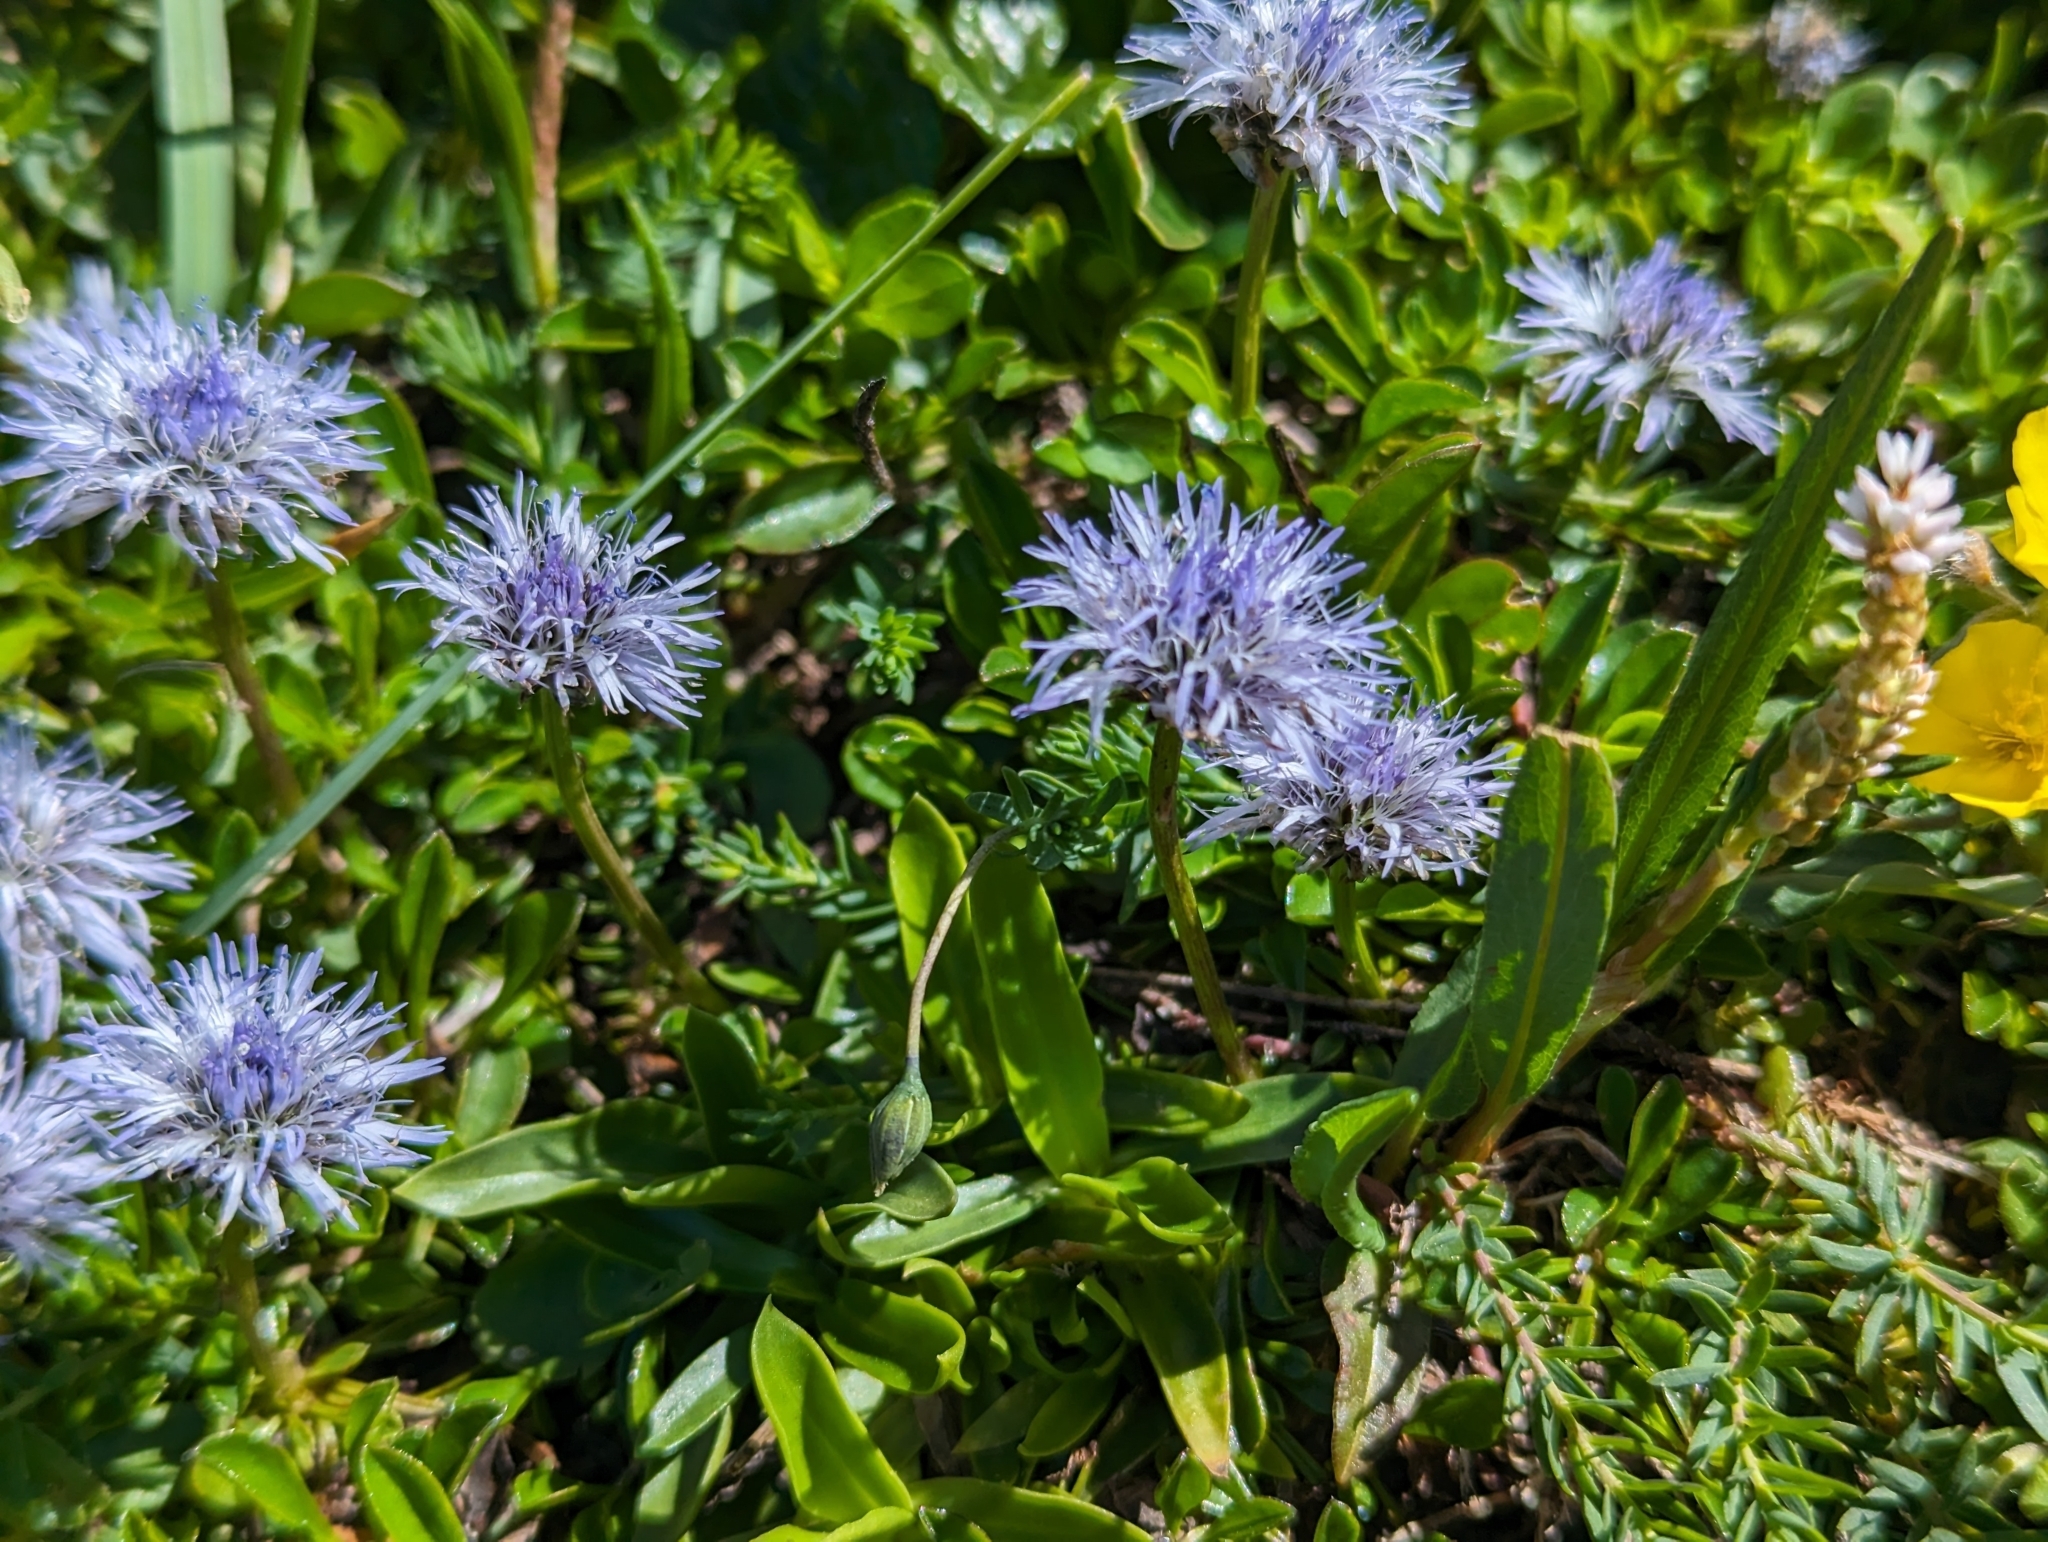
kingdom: Plantae
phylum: Tracheophyta
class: Magnoliopsida
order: Lamiales
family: Plantaginaceae
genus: Globularia
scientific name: Globularia cordifolia
